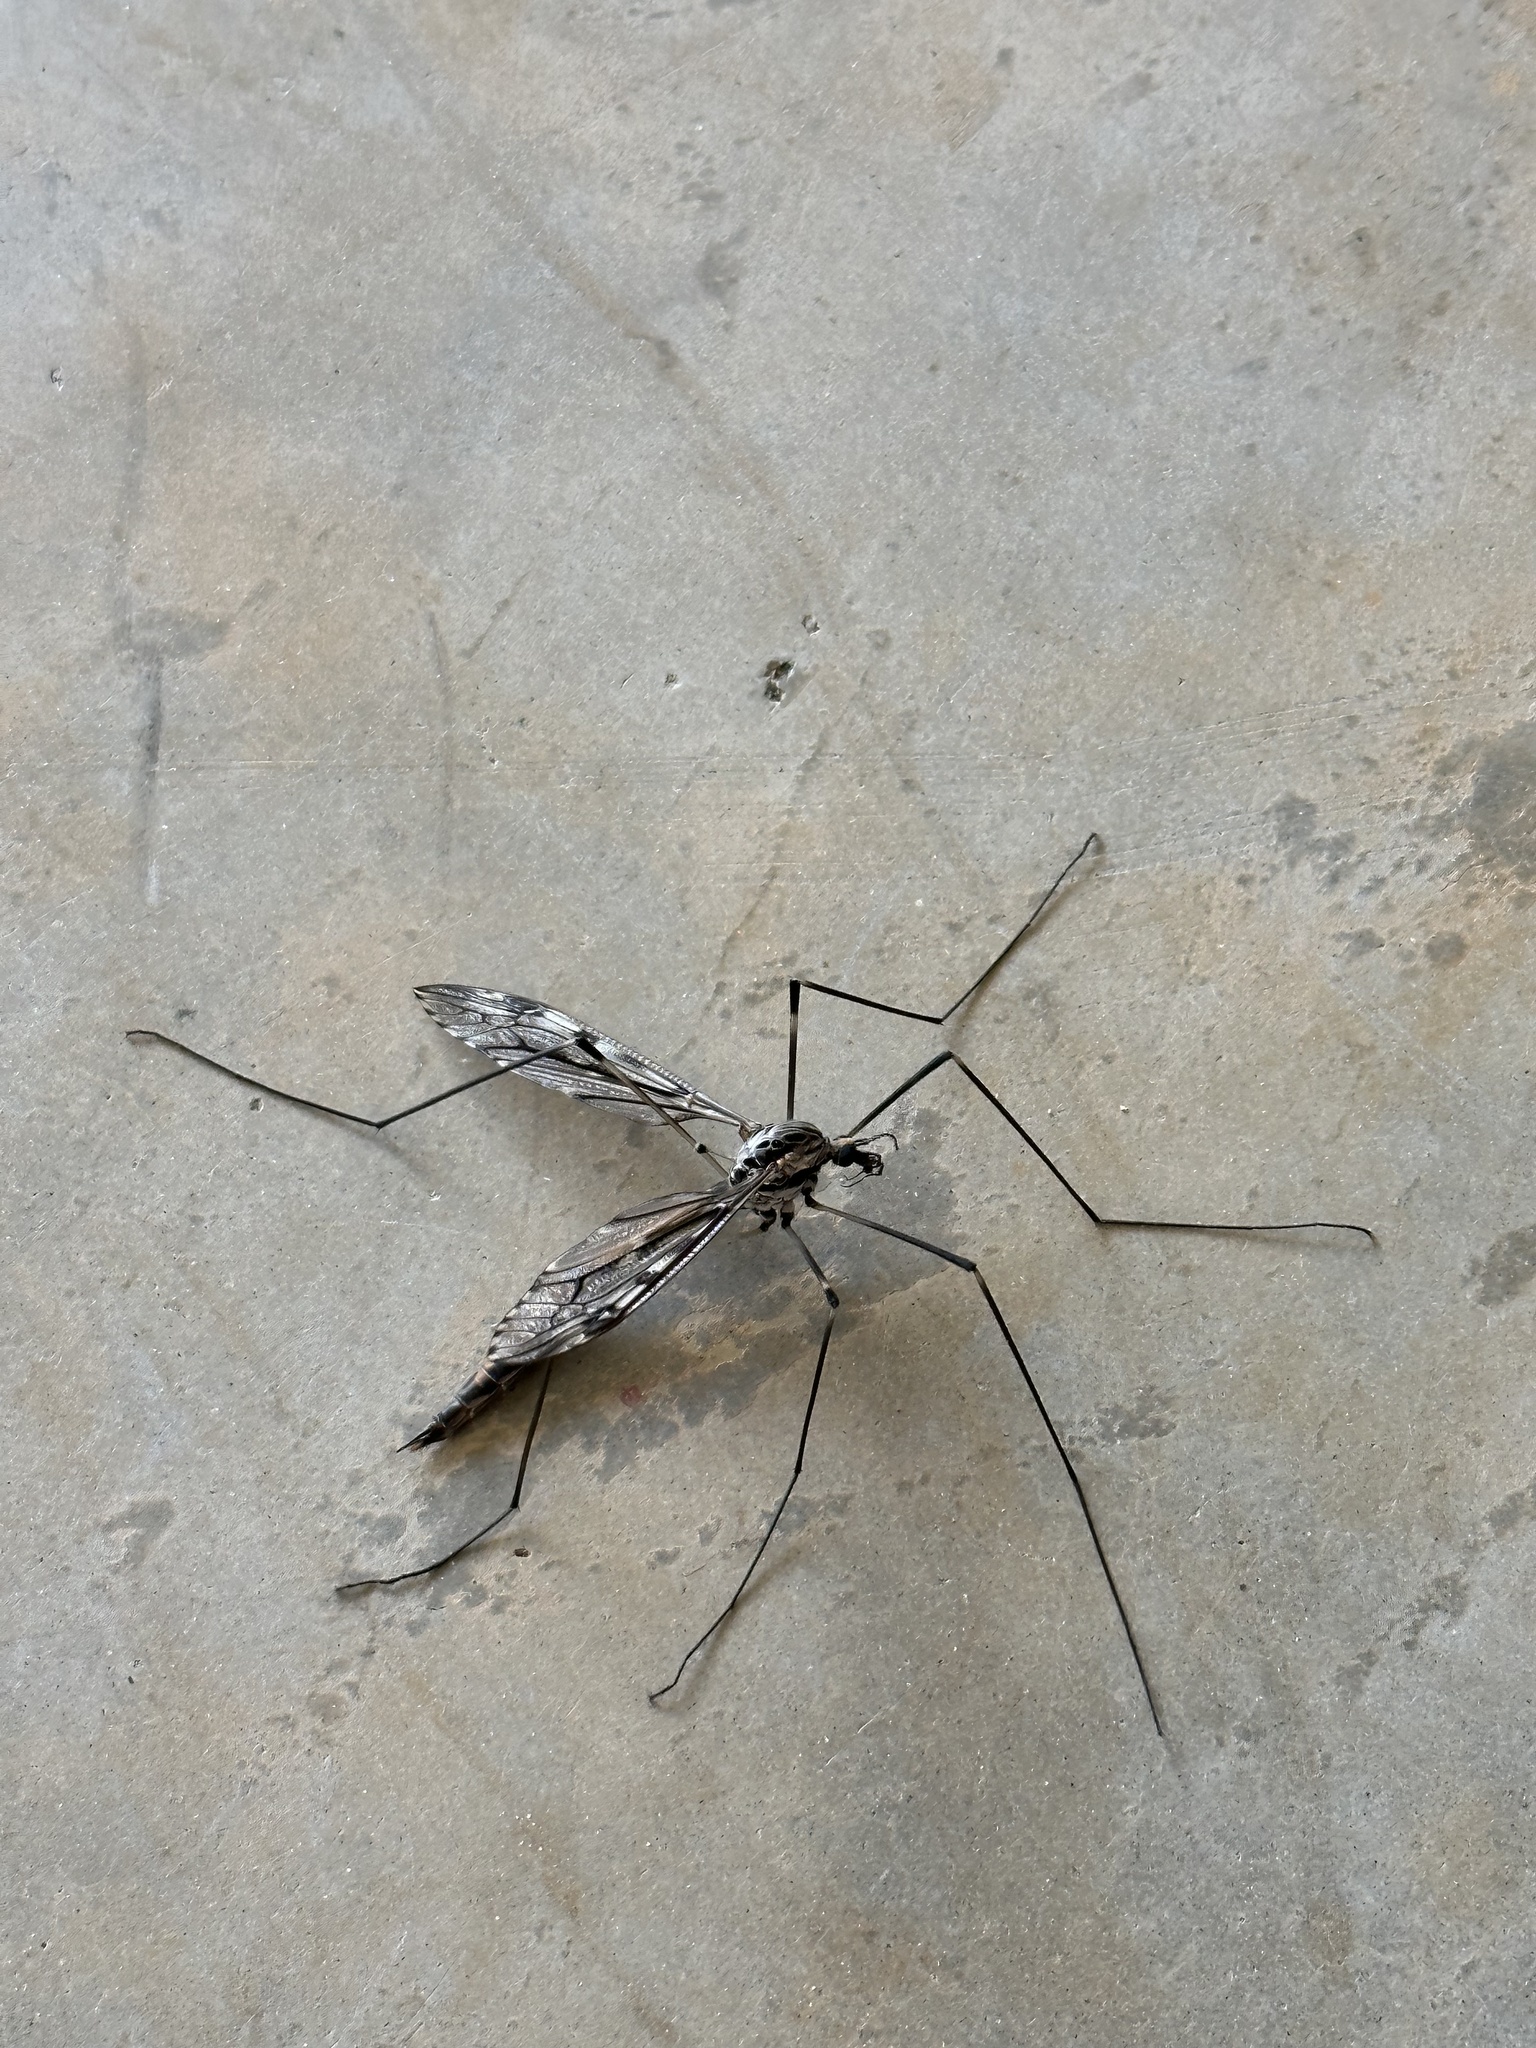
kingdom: Animalia
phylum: Arthropoda
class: Insecta
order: Diptera
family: Tipulidae
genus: Tipula
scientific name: Tipula abdominalis
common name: Giant crane fly
